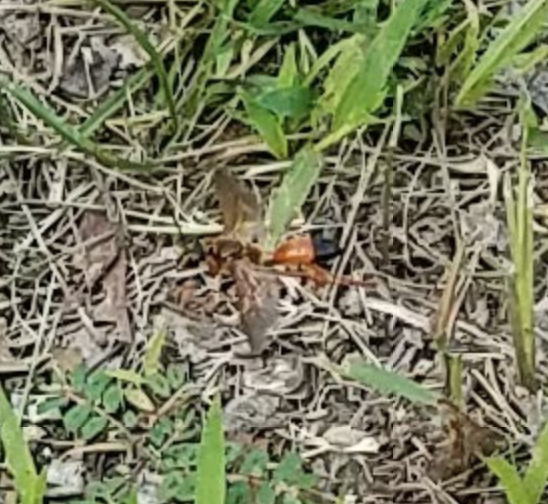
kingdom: Animalia
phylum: Arthropoda
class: Insecta
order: Hymenoptera
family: Sphecidae
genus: Sphex
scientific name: Sphex ichneumoneus
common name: Great golden digger wasp
